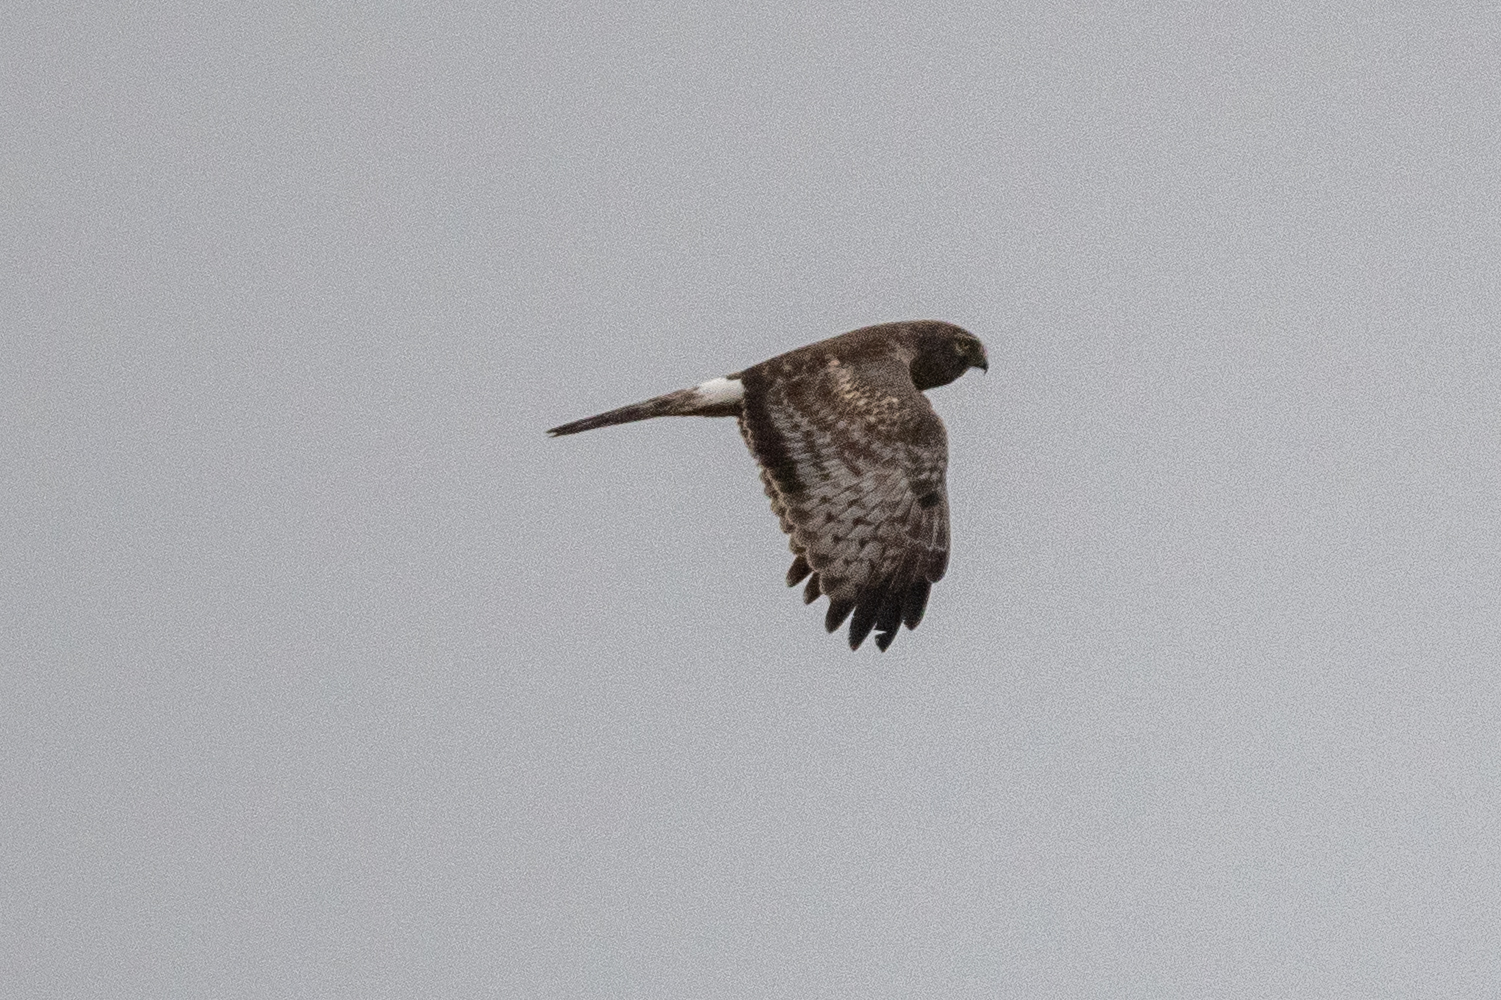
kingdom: Animalia
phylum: Chordata
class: Aves
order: Accipitriformes
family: Accipitridae
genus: Circus
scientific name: Circus cyaneus
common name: Hen harrier
